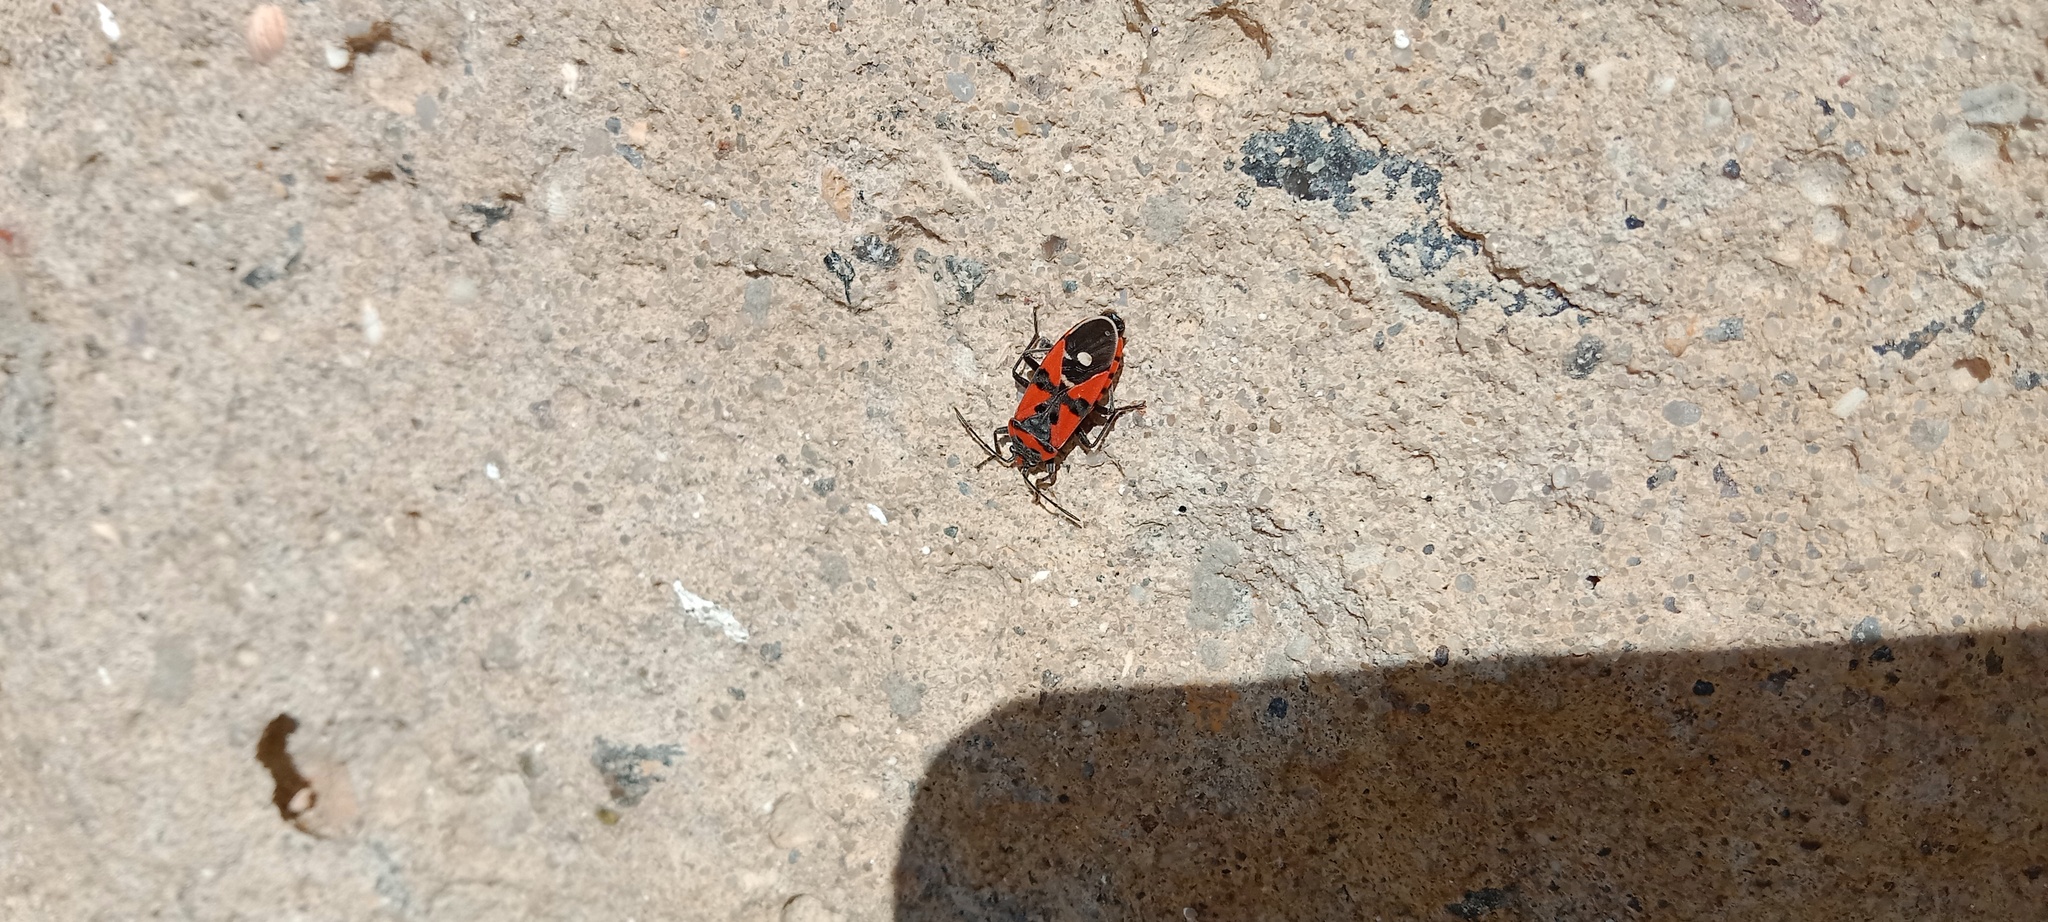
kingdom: Animalia
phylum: Arthropoda
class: Insecta
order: Hemiptera
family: Lygaeidae
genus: Lygaeus
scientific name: Lygaeus equestris
